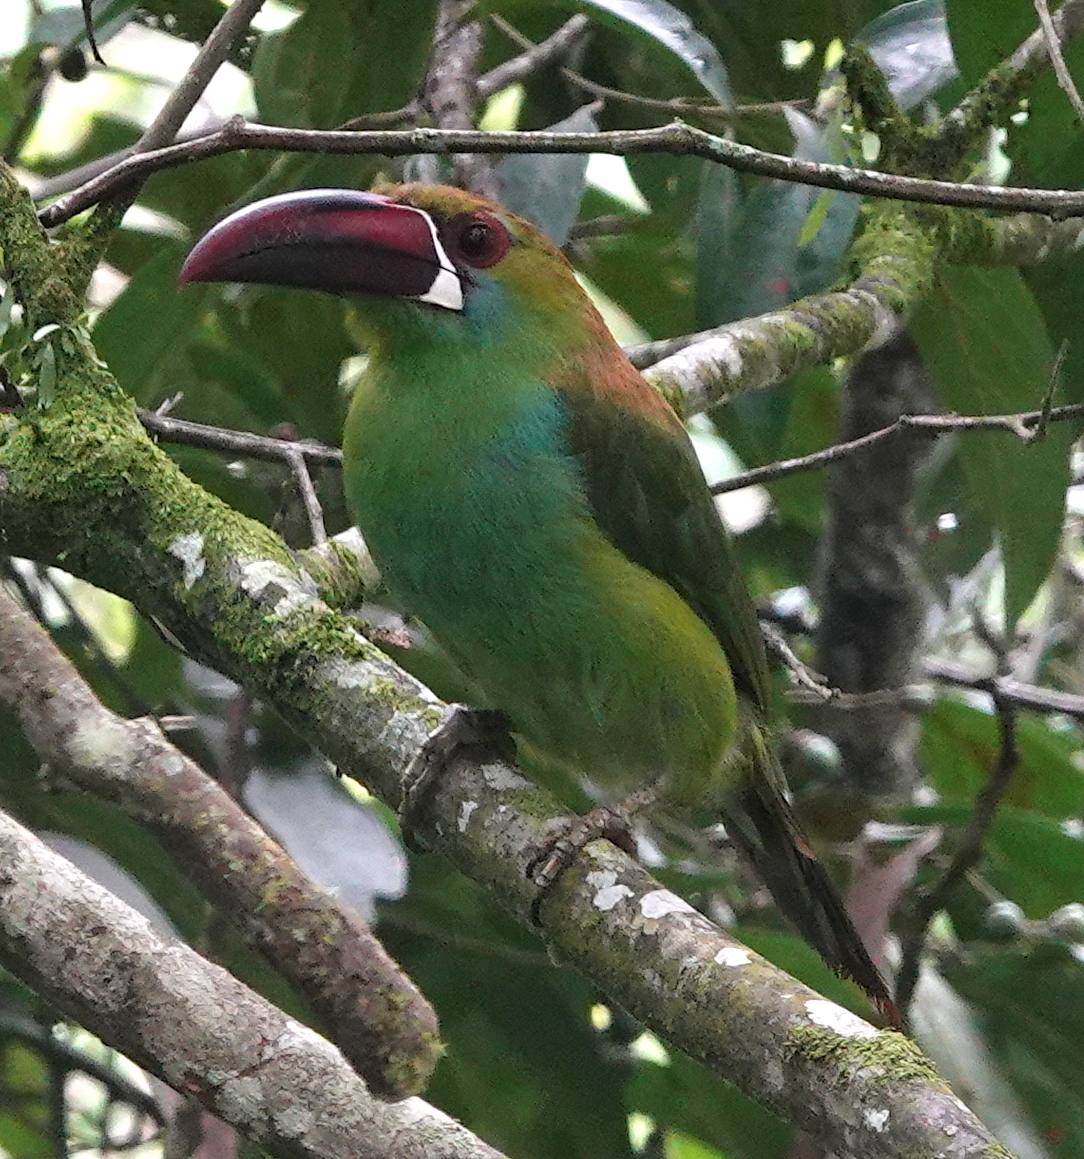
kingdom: Animalia
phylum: Chordata
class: Aves
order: Piciformes
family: Ramphastidae
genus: Aulacorhynchus
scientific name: Aulacorhynchus haematopygus
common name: Crimson-rumped toucanet
